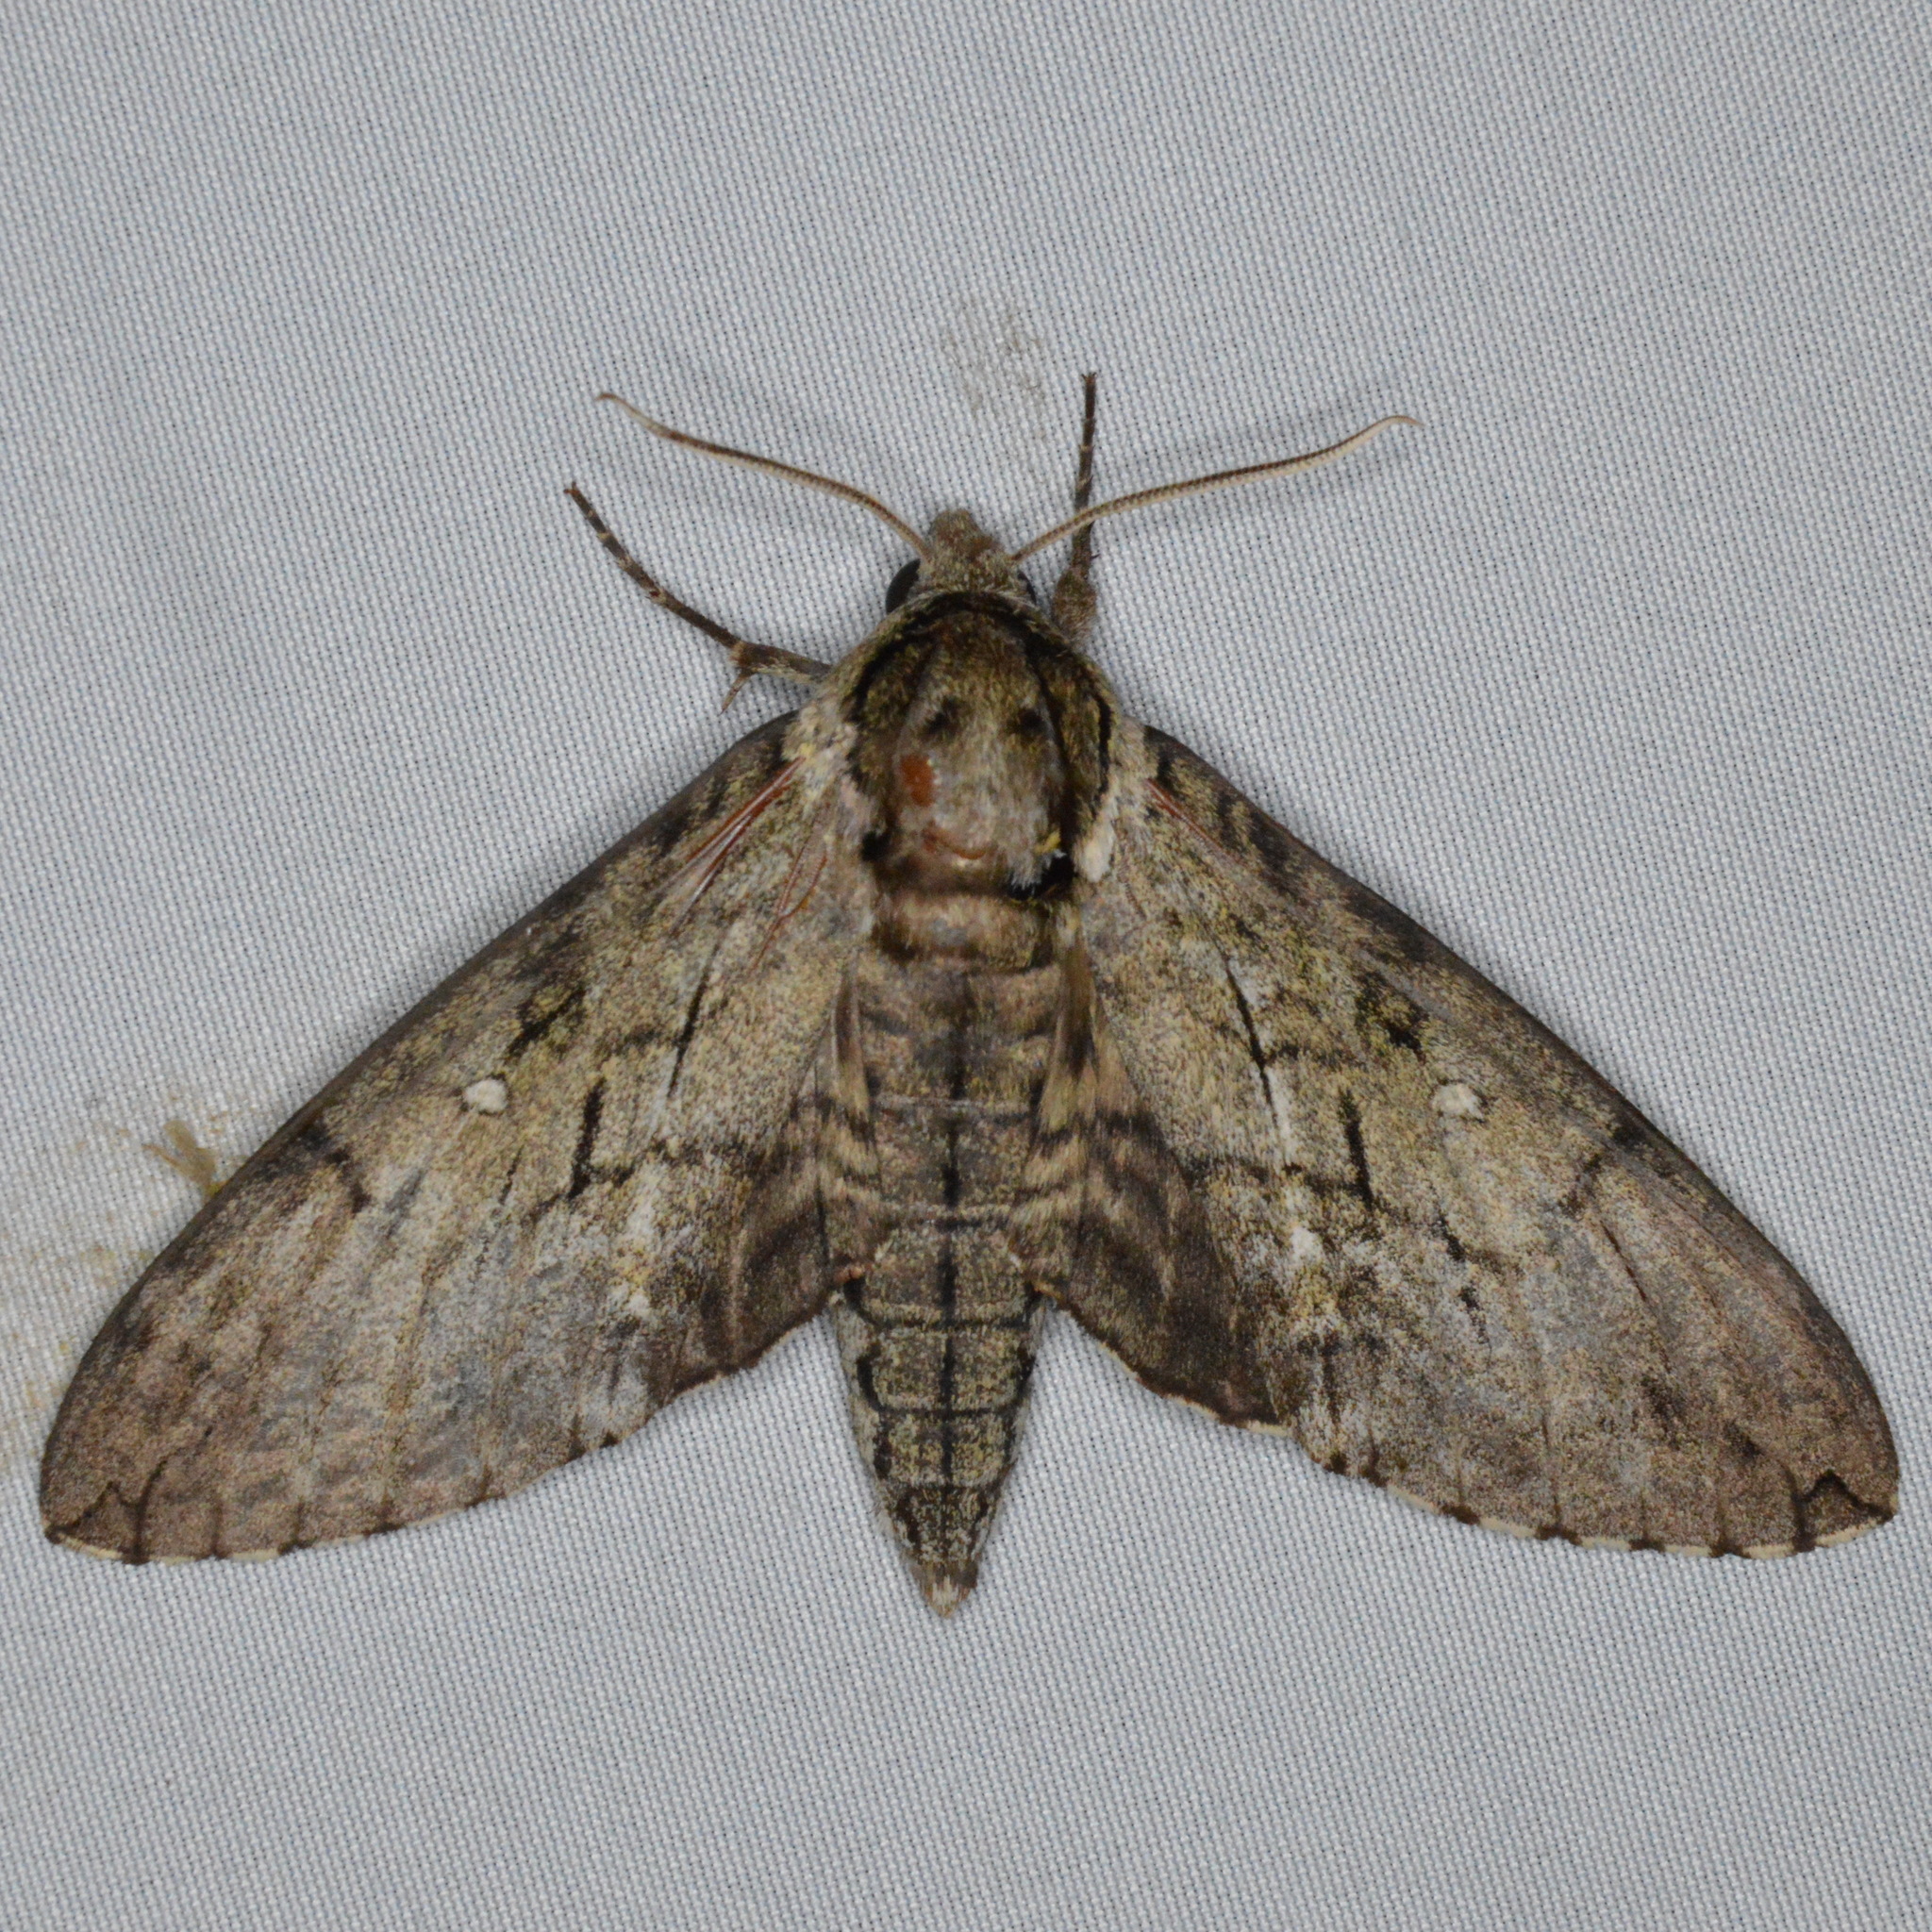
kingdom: Animalia
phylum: Arthropoda
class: Insecta
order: Lepidoptera
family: Sphingidae
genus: Ceratomia
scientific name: Ceratomia undulosa
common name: Waved sphinx
